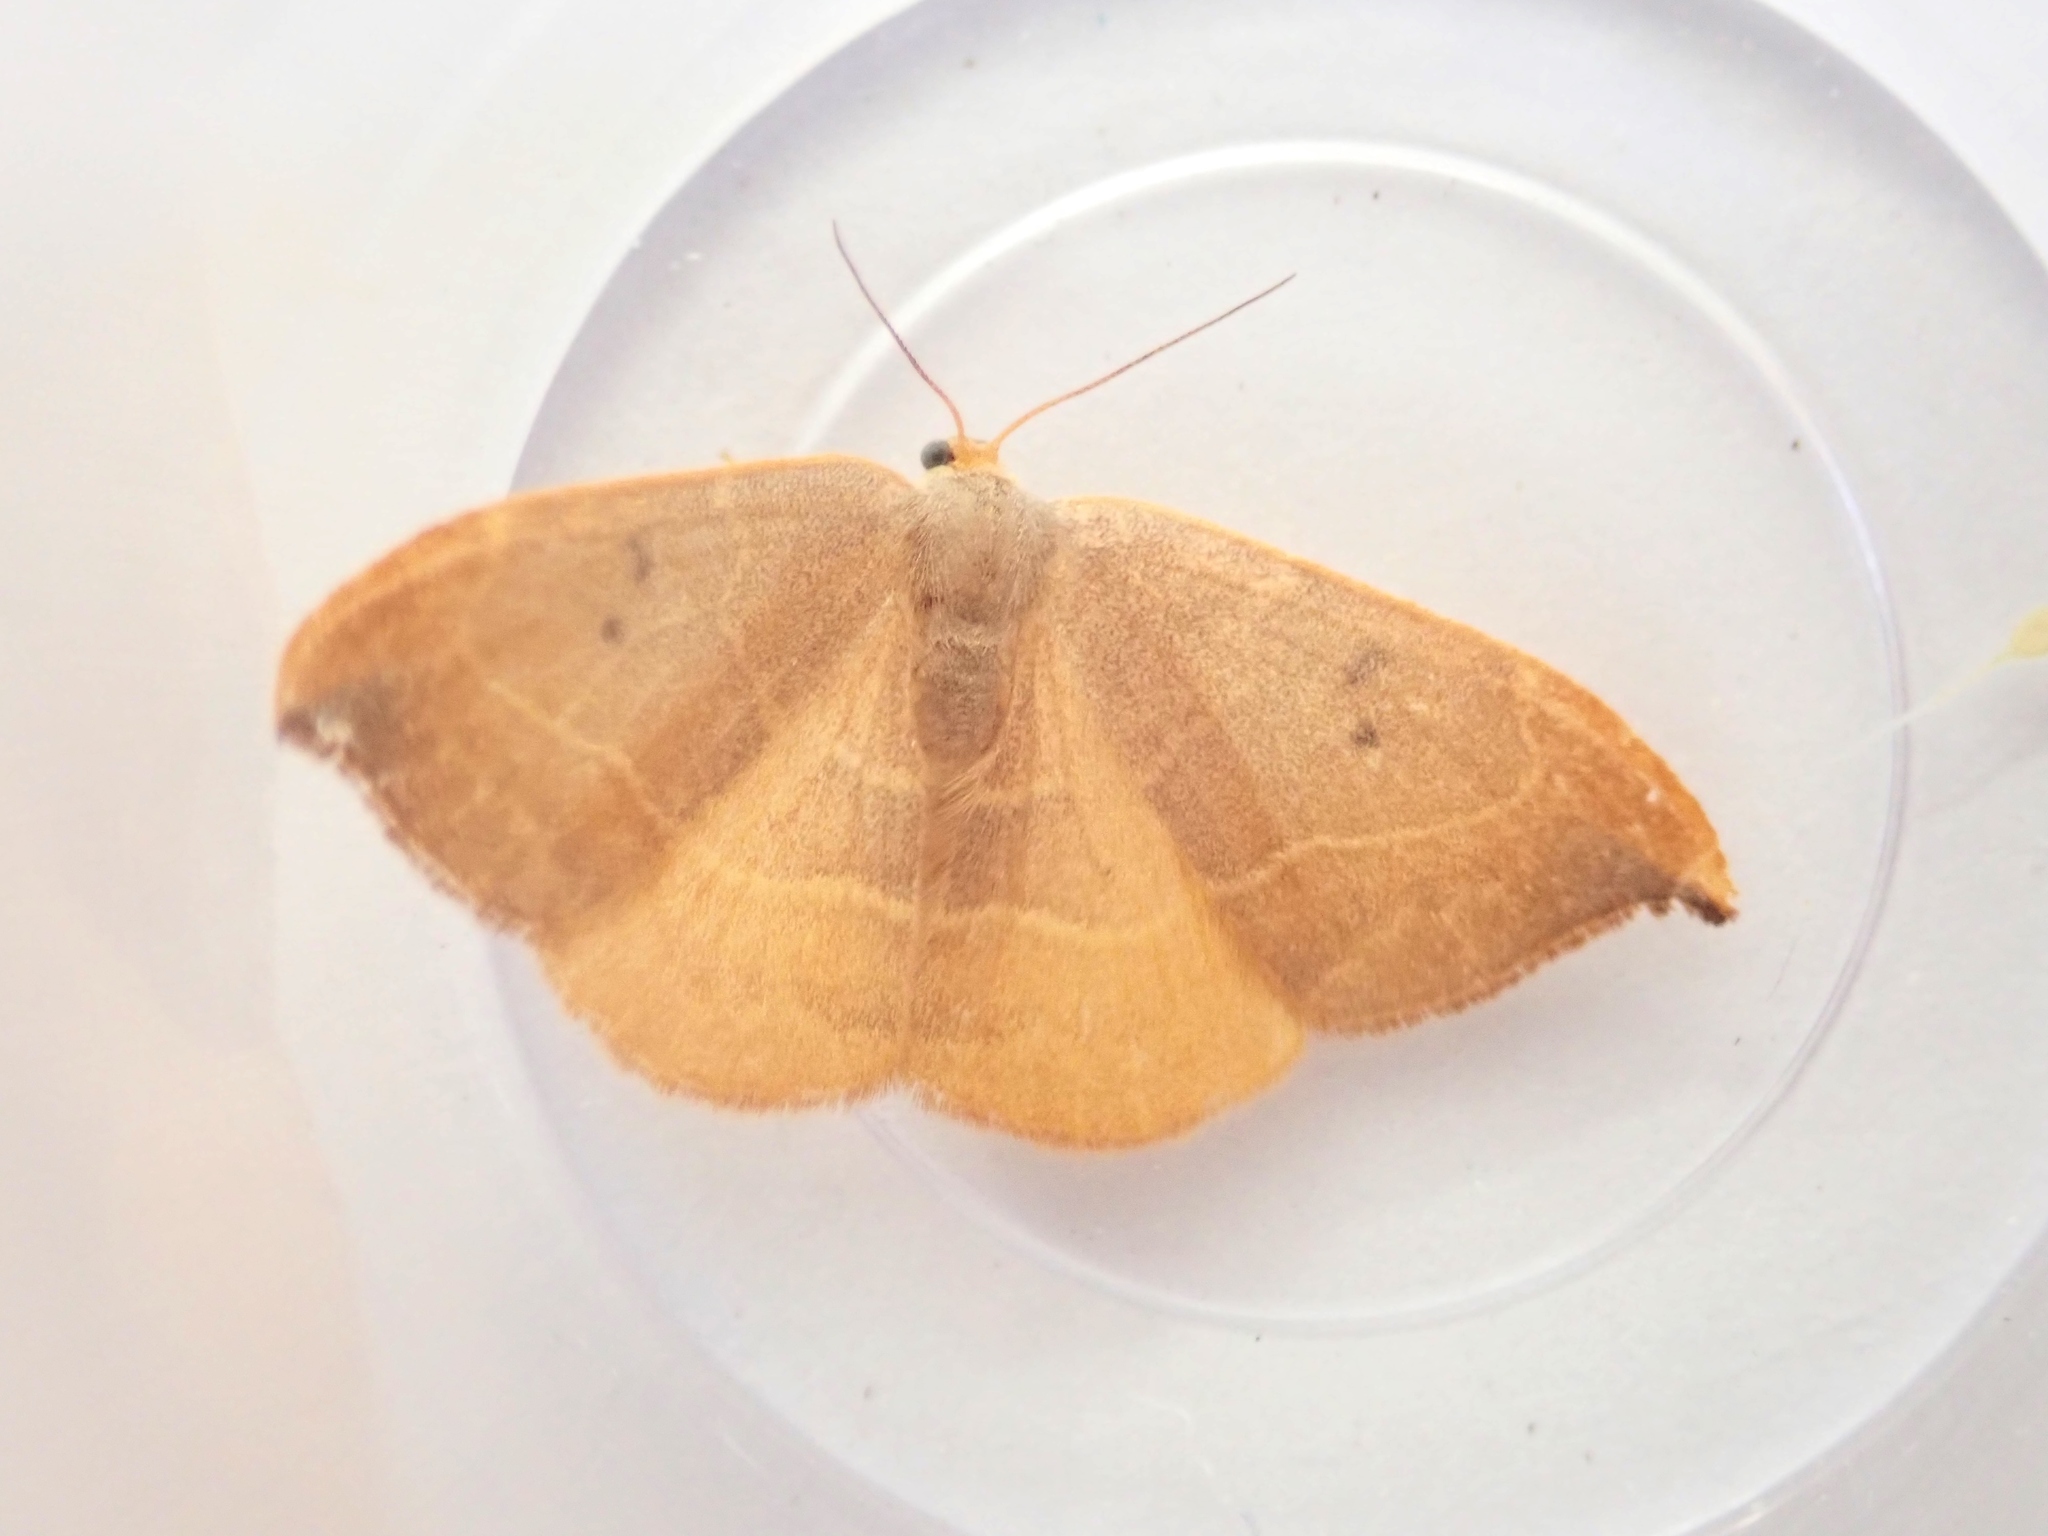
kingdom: Animalia
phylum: Arthropoda
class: Insecta
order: Lepidoptera
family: Drepanidae
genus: Watsonalla
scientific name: Watsonalla binaria
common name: Oak hook-tip
